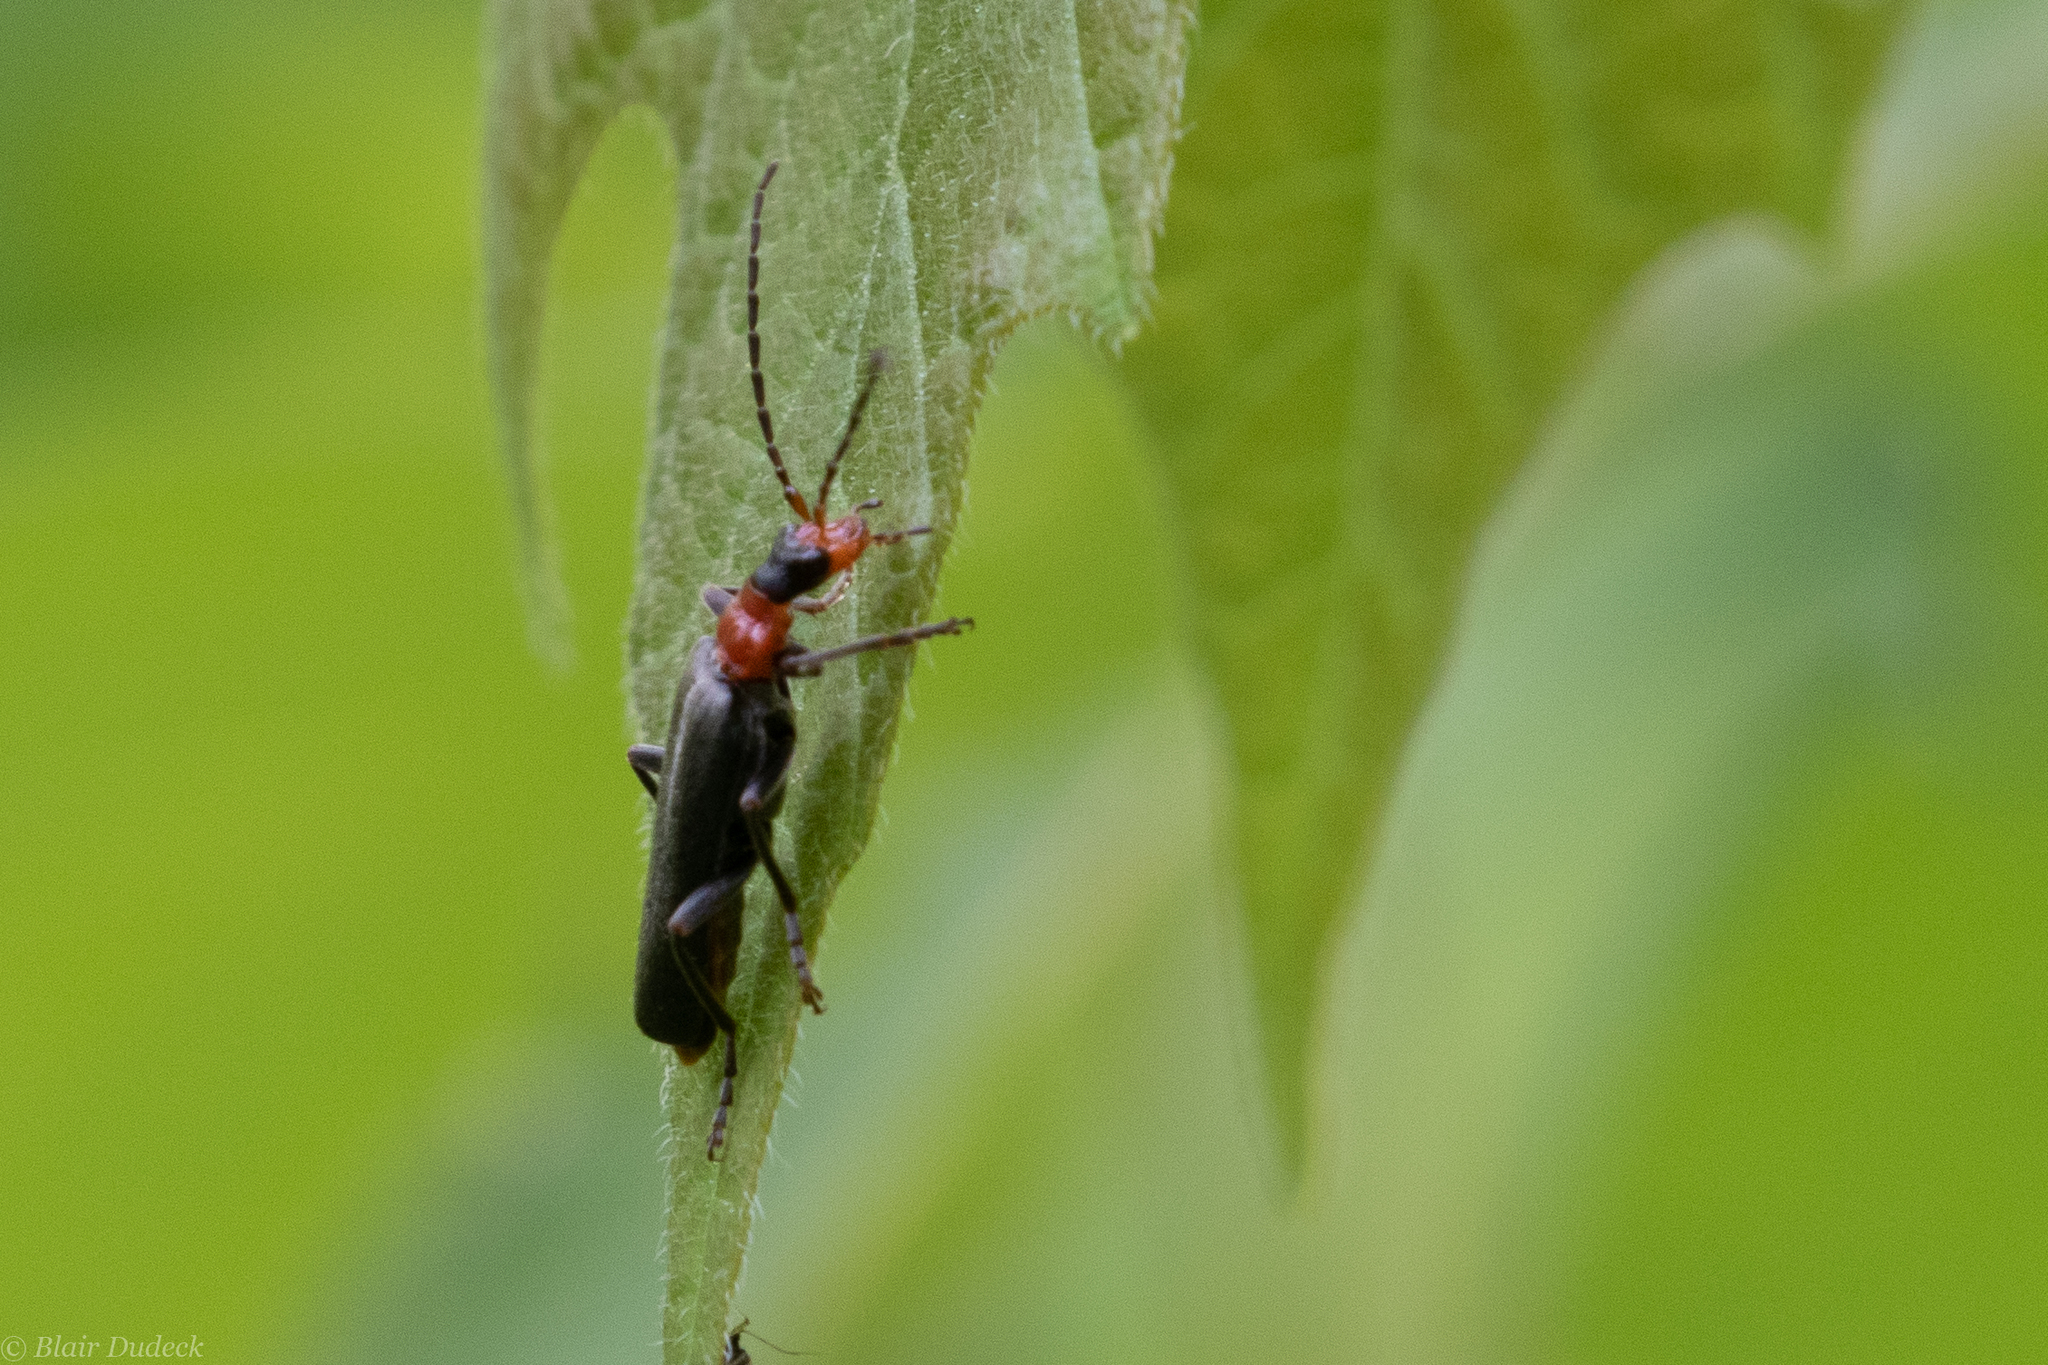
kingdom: Animalia
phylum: Arthropoda
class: Insecta
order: Coleoptera
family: Cantharidae
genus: Podabrus
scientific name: Podabrus pruinosus
